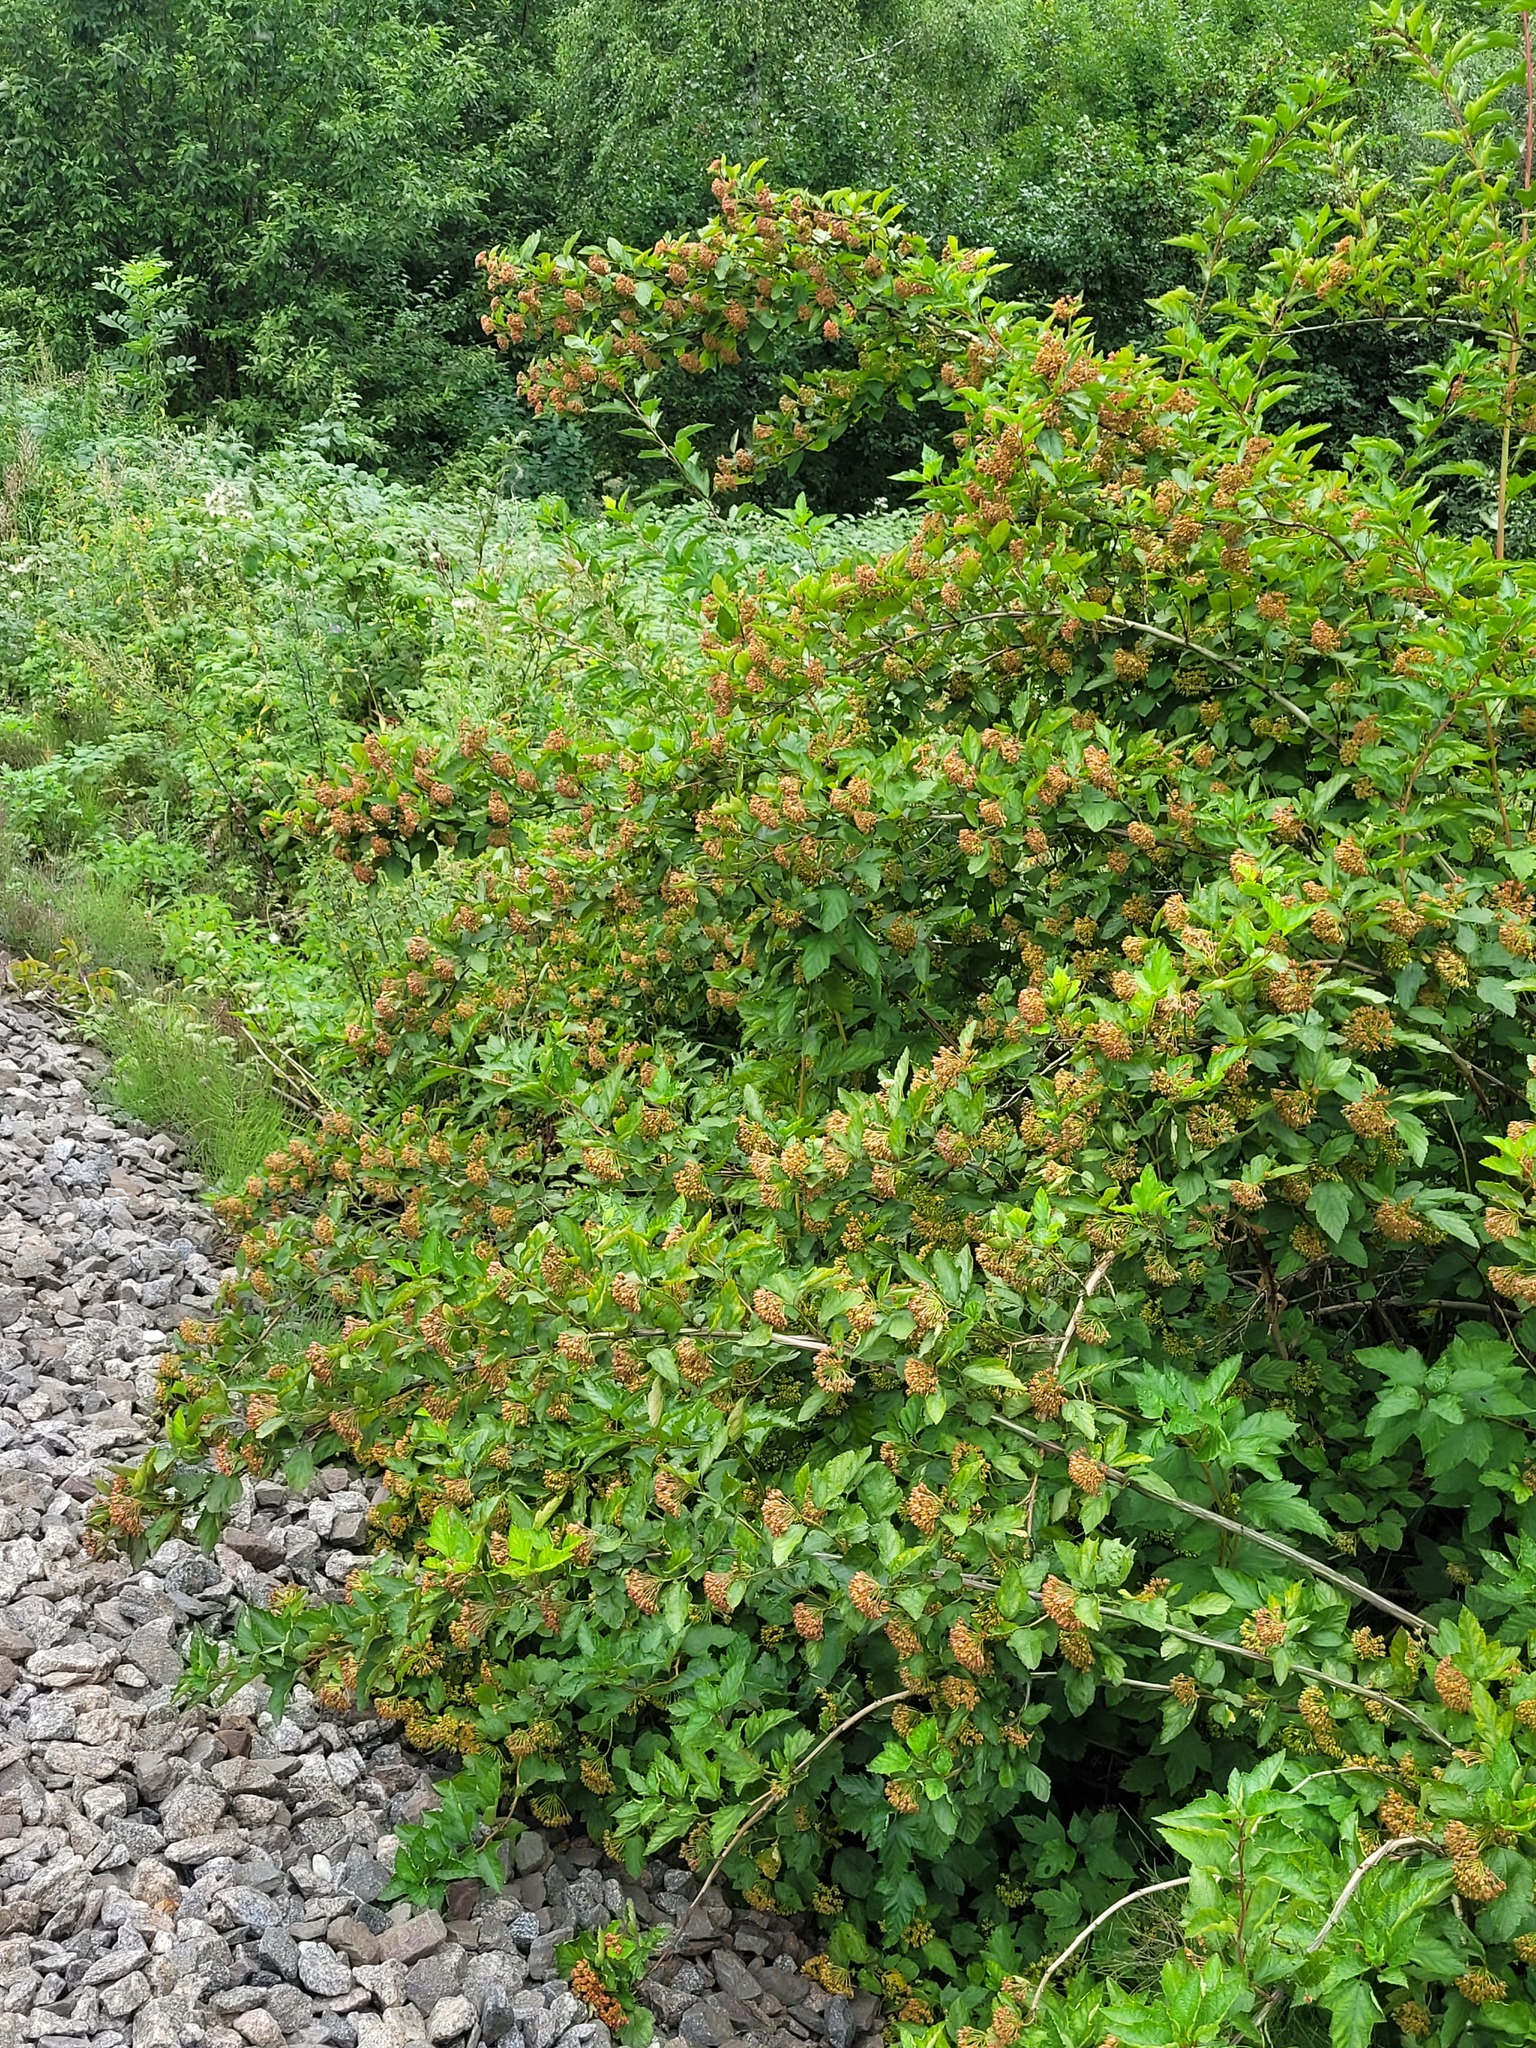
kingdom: Plantae
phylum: Tracheophyta
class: Magnoliopsida
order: Rosales
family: Rosaceae
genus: Physocarpus
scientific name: Physocarpus opulifolius
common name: Ninebark
